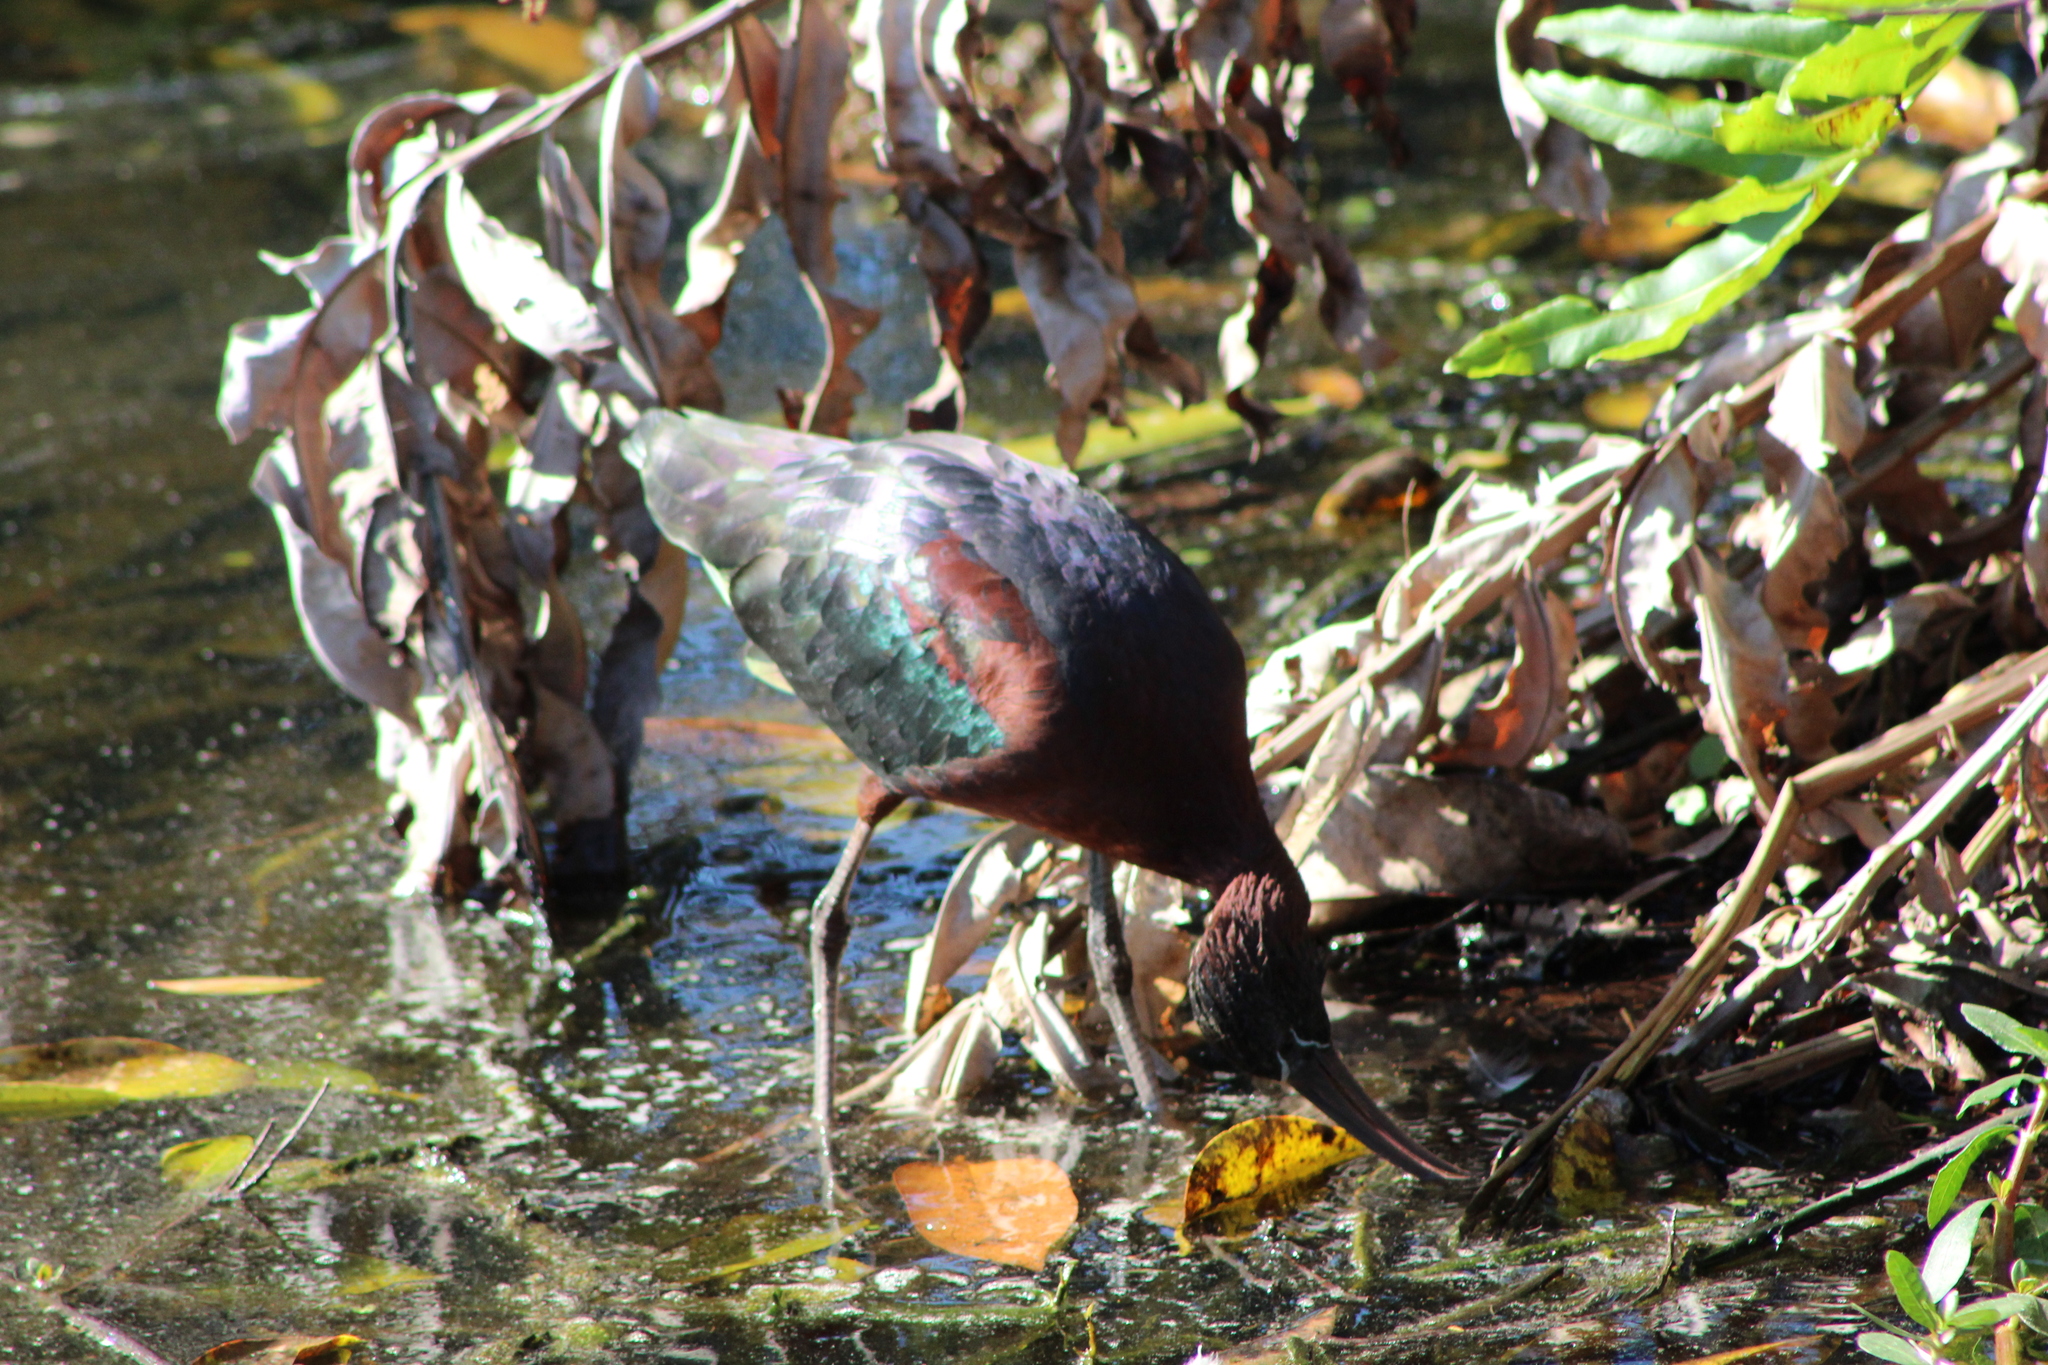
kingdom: Animalia
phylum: Chordata
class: Aves
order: Pelecaniformes
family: Threskiornithidae
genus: Plegadis
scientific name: Plegadis falcinellus
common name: Glossy ibis
